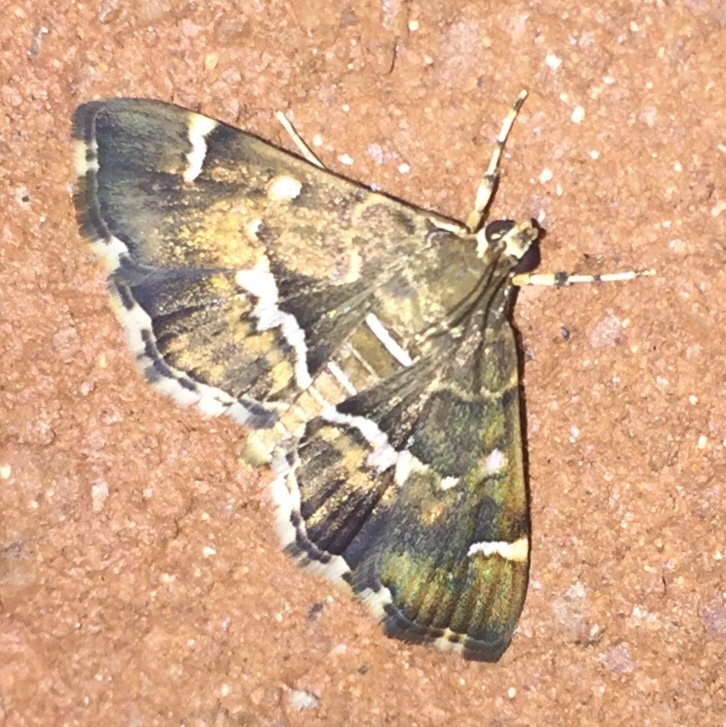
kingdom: Animalia
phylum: Arthropoda
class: Insecta
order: Lepidoptera
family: Crambidae
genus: Hymenia
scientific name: Hymenia perspectalis
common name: Spotted beet webworm
